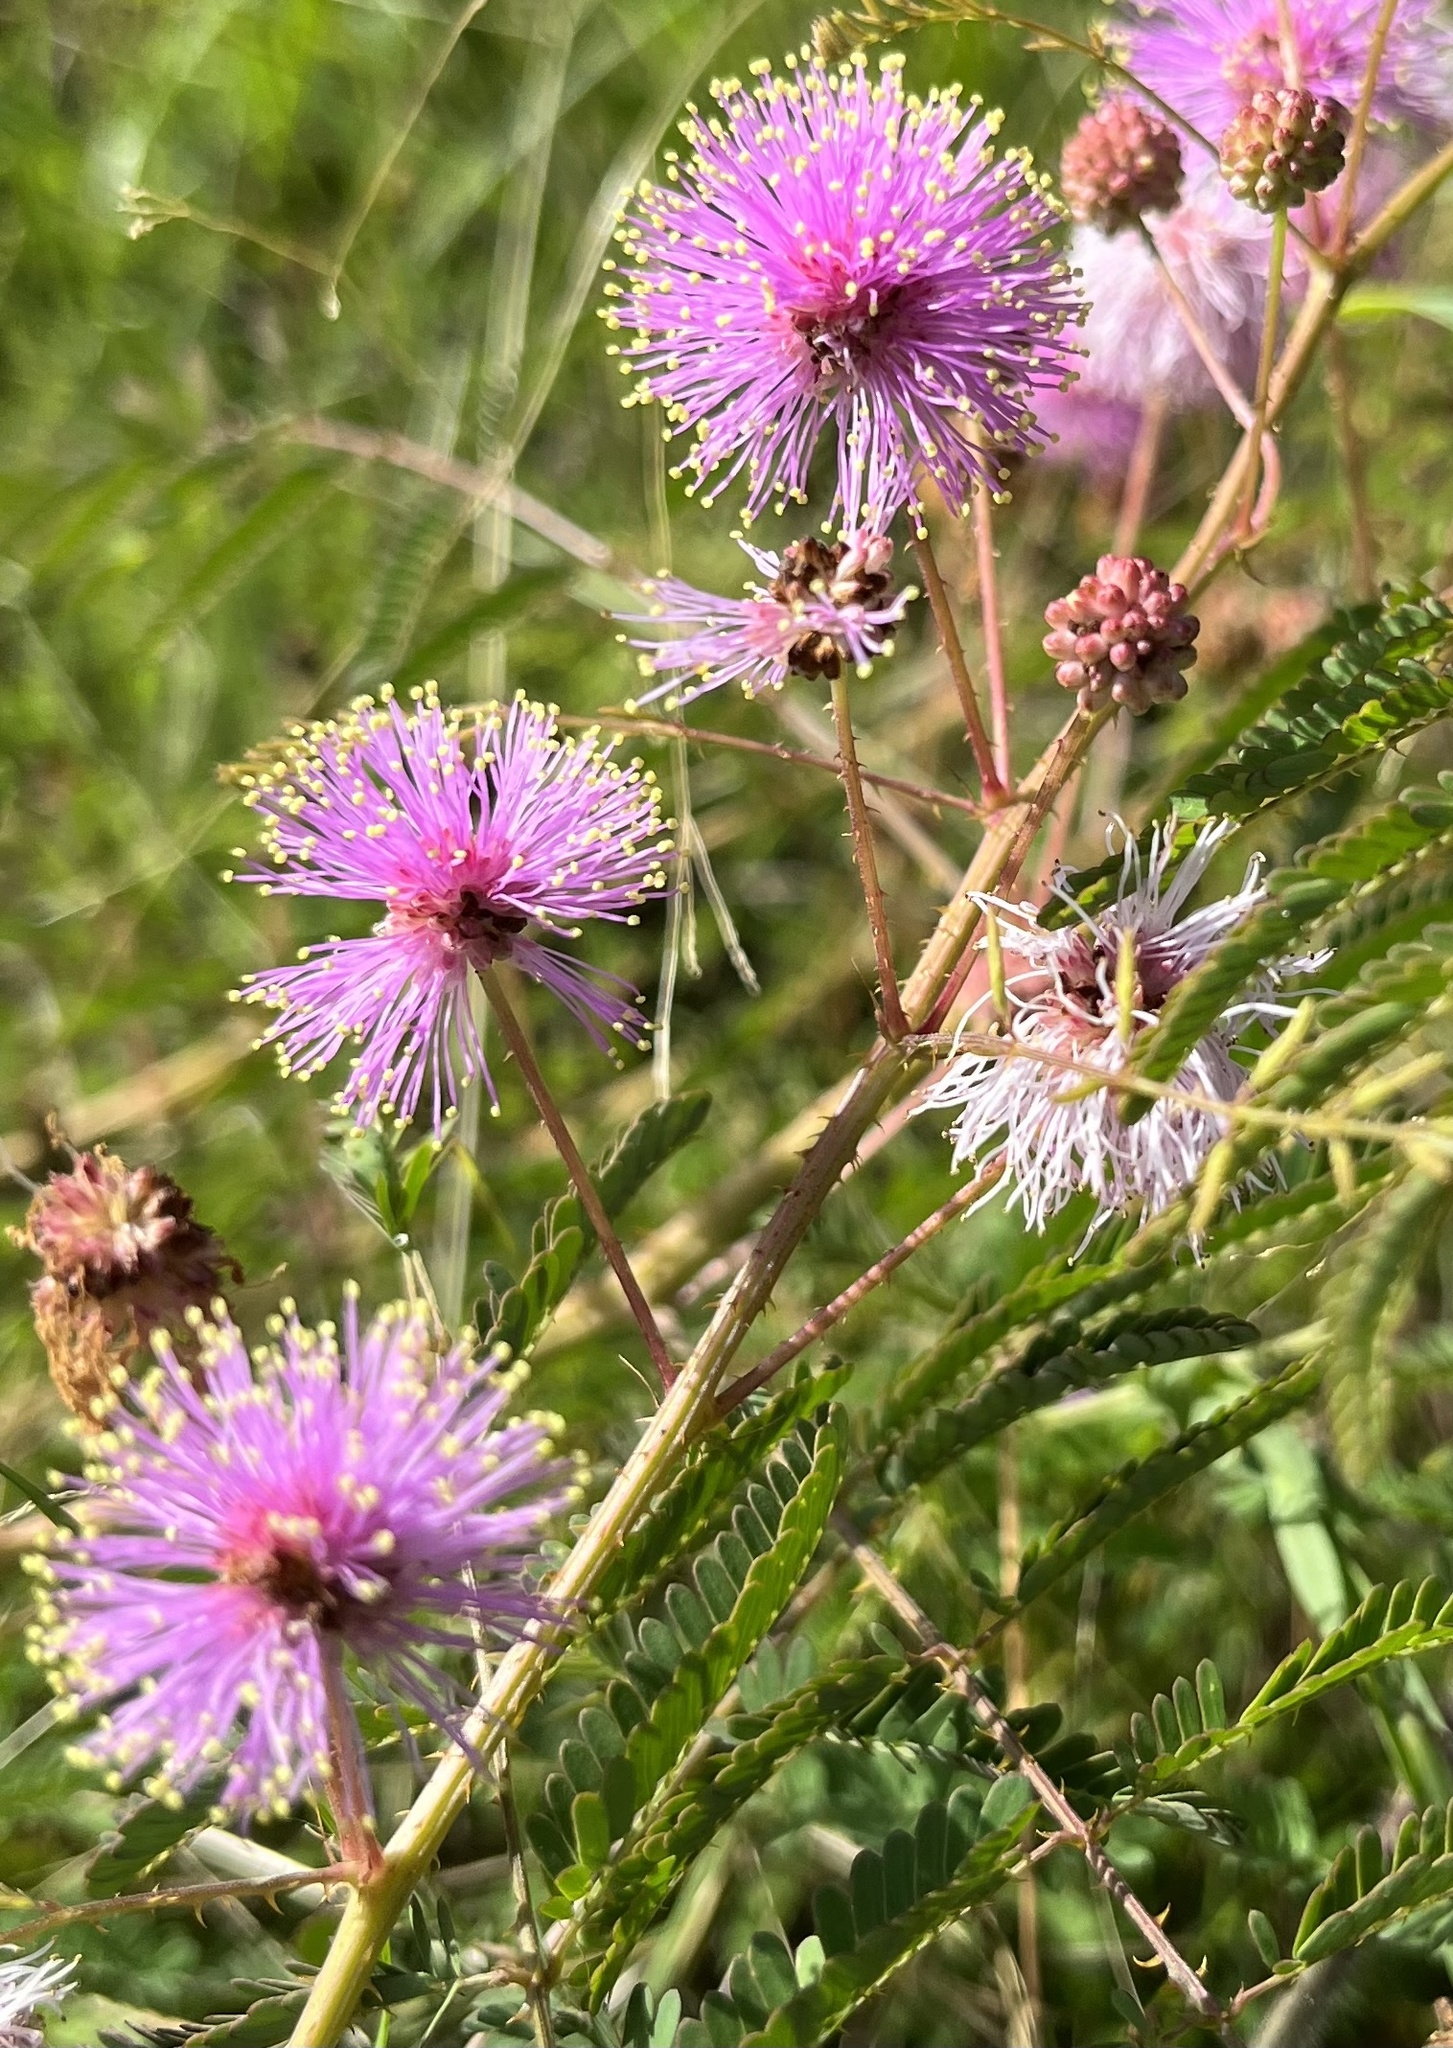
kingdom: Plantae
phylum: Tracheophyta
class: Magnoliopsida
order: Fabales
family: Fabaceae
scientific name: Fabaceae
